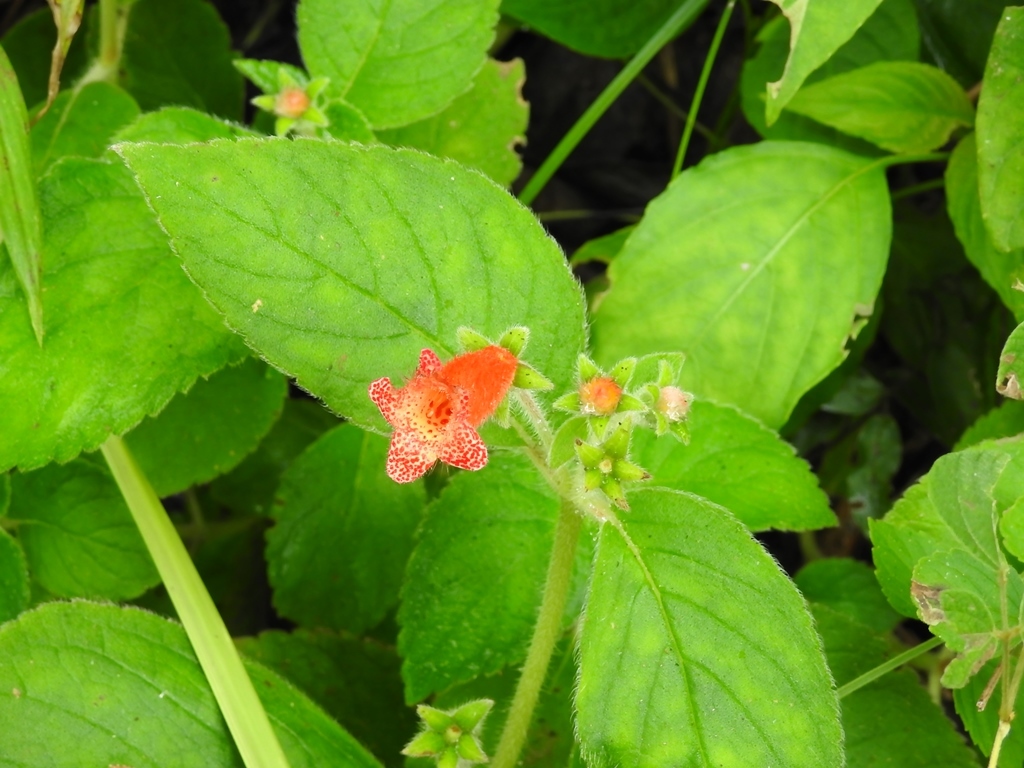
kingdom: Plantae
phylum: Tracheophyta
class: Magnoliopsida
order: Lamiales
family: Gesneriaceae
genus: Kohleria
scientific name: Kohleria rugata
